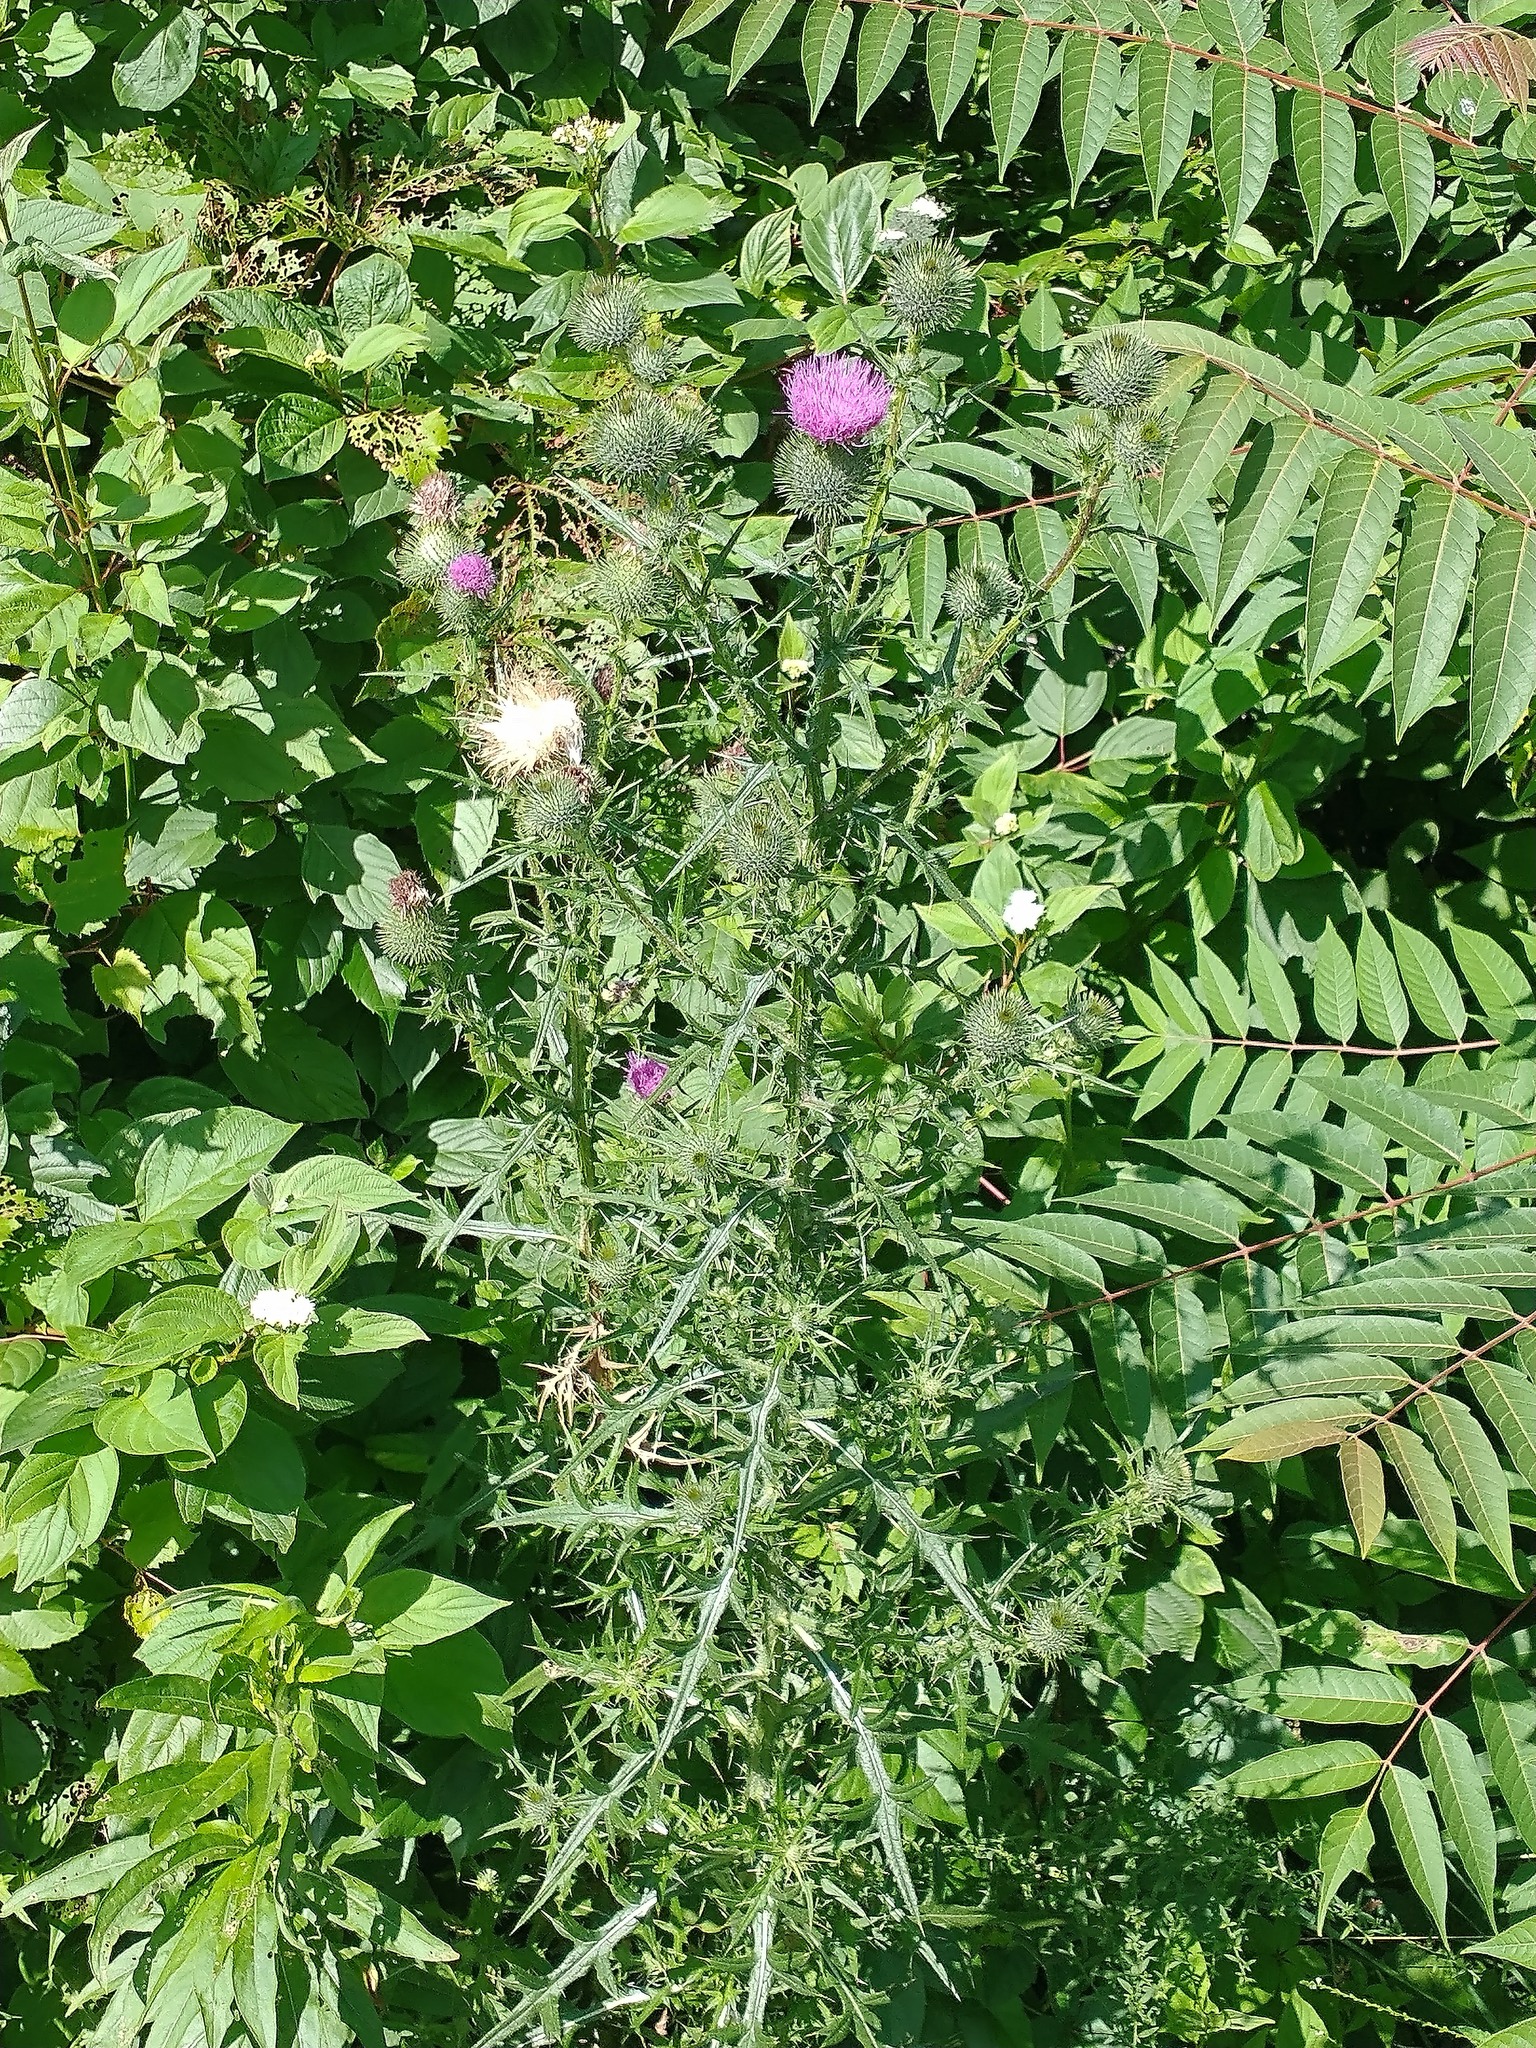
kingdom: Plantae
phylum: Tracheophyta
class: Magnoliopsida
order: Asterales
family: Asteraceae
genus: Cirsium
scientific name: Cirsium vulgare
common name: Bull thistle
